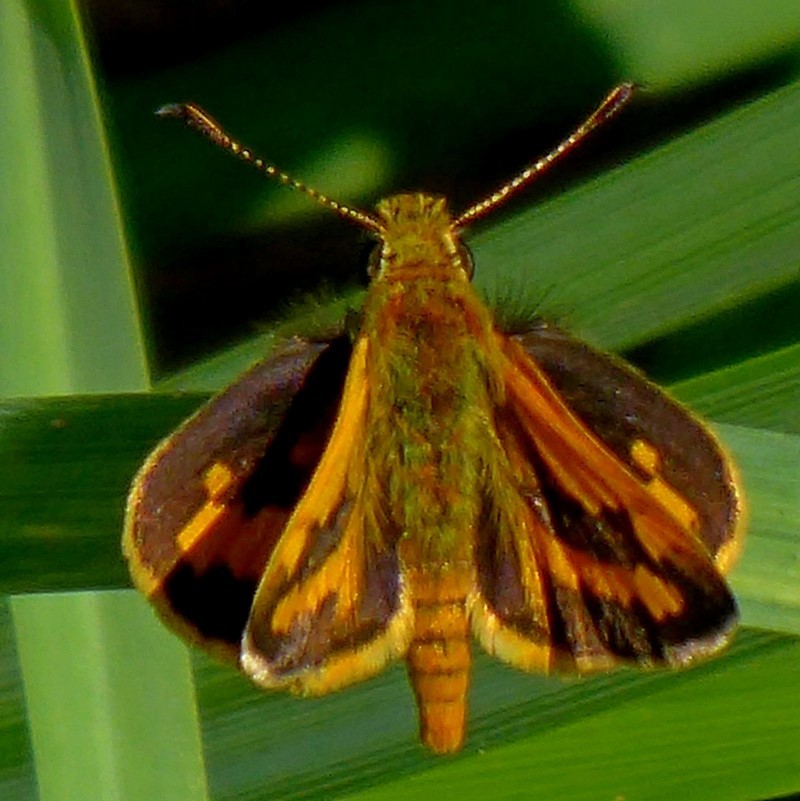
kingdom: Animalia
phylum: Arthropoda
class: Insecta
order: Lepidoptera
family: Hesperiidae
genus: Ocybadistes
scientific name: Ocybadistes walkeri
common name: Yellow-banded dart
